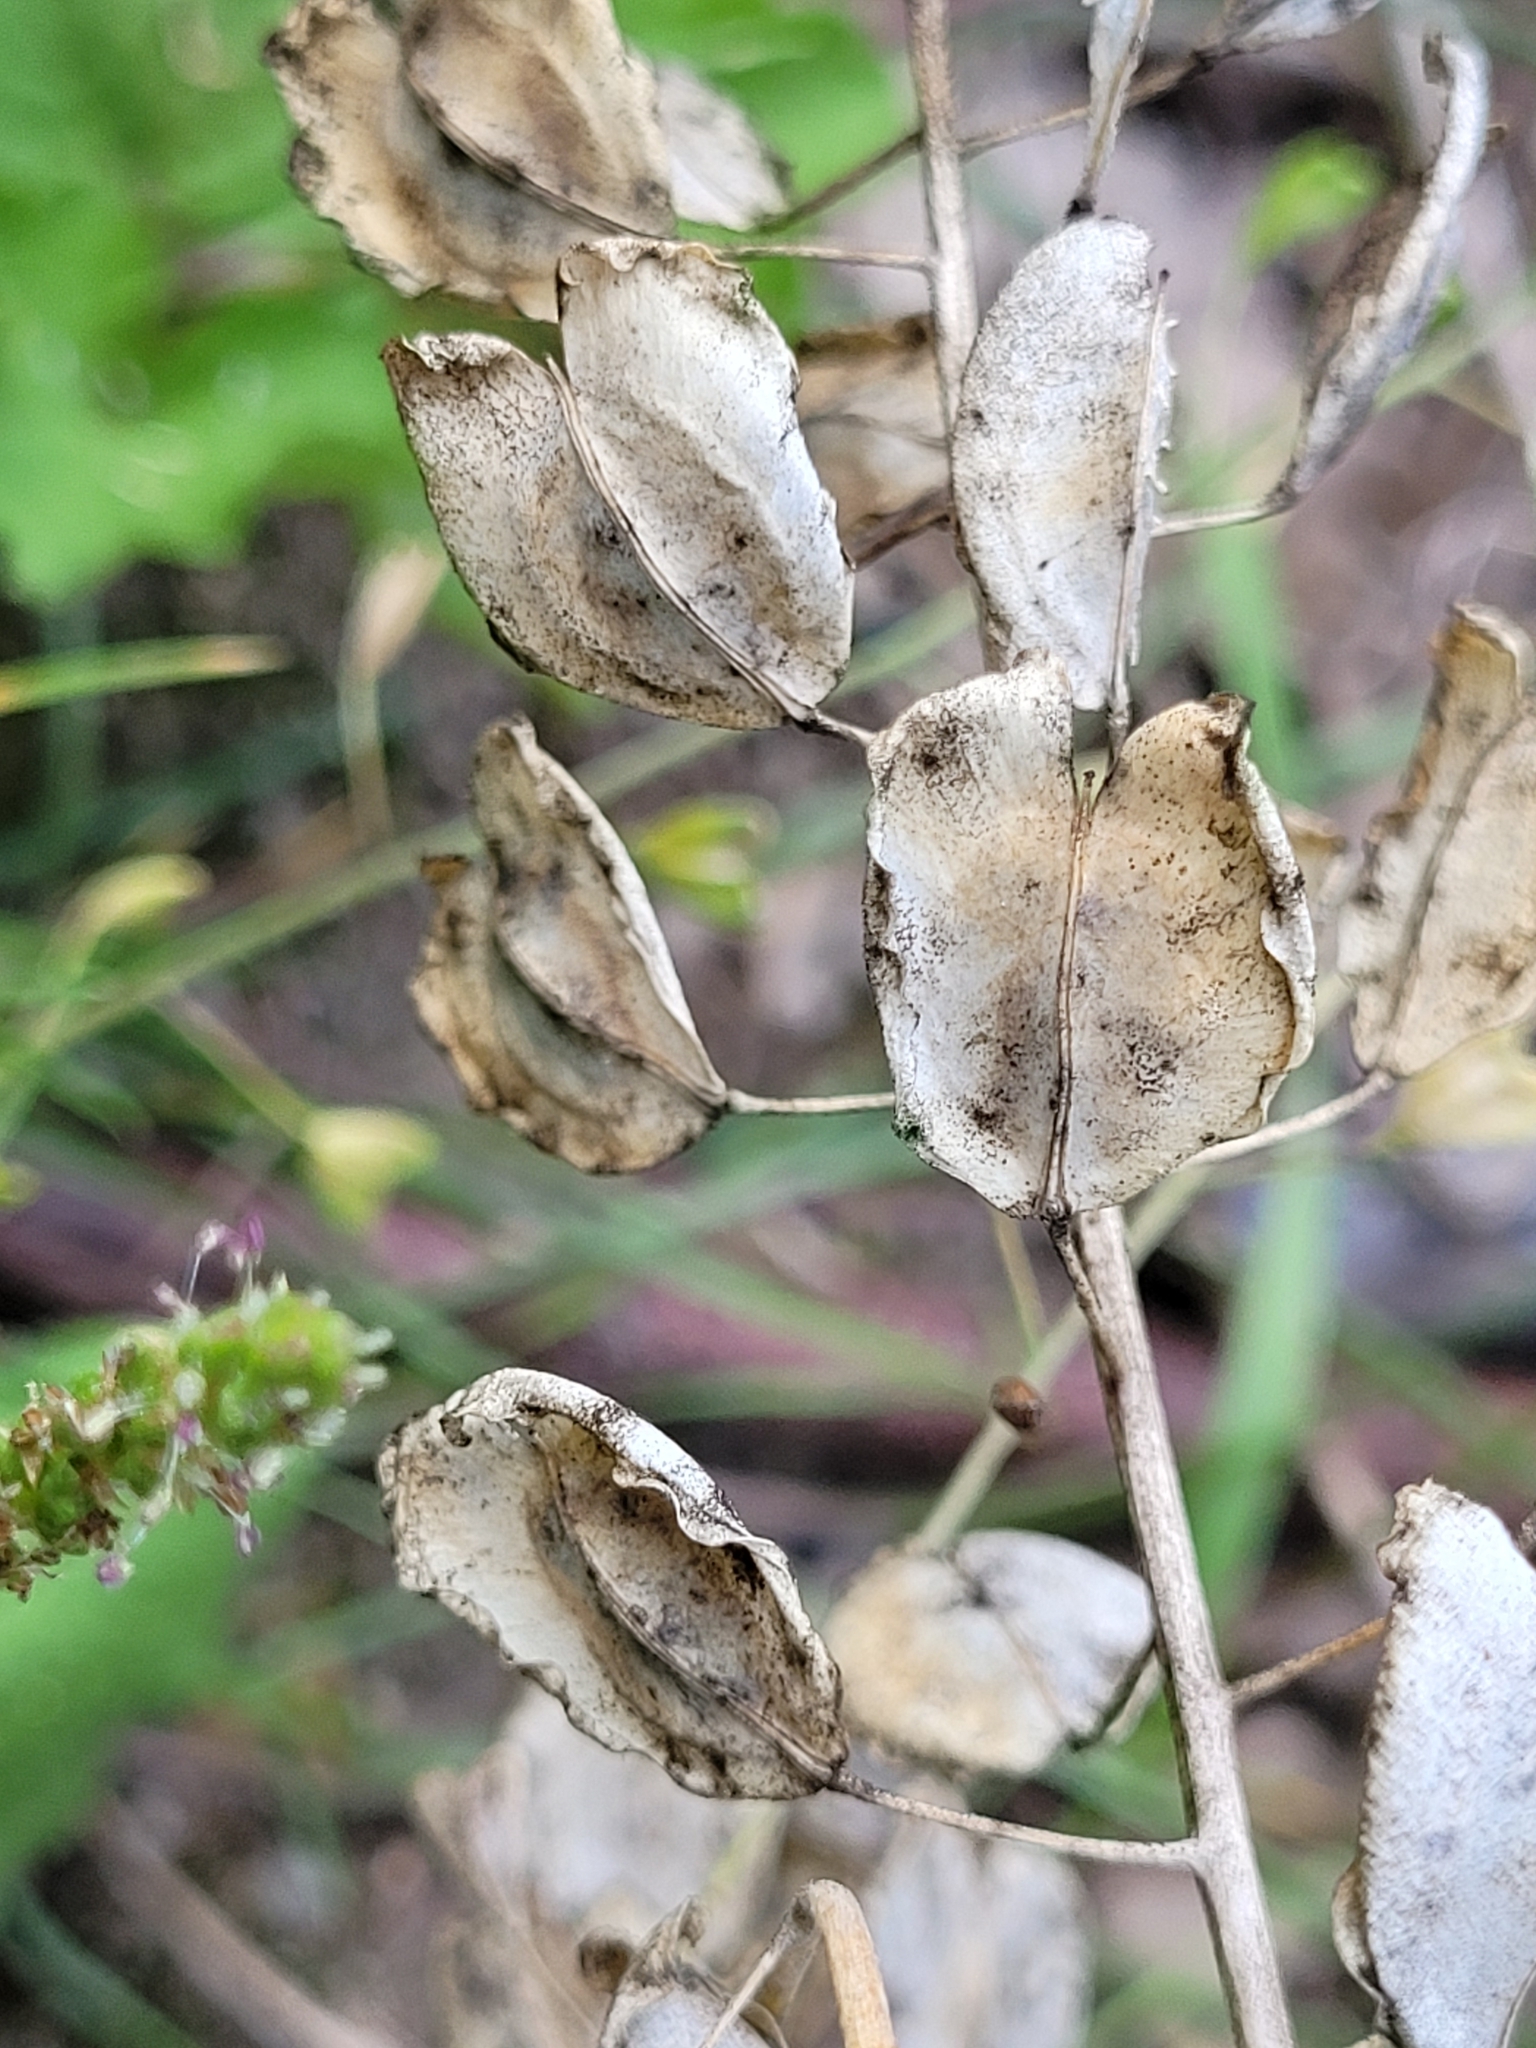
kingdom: Plantae
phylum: Tracheophyta
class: Magnoliopsida
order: Brassicales
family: Brassicaceae
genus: Thlaspi
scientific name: Thlaspi arvense
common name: Field pennycress
